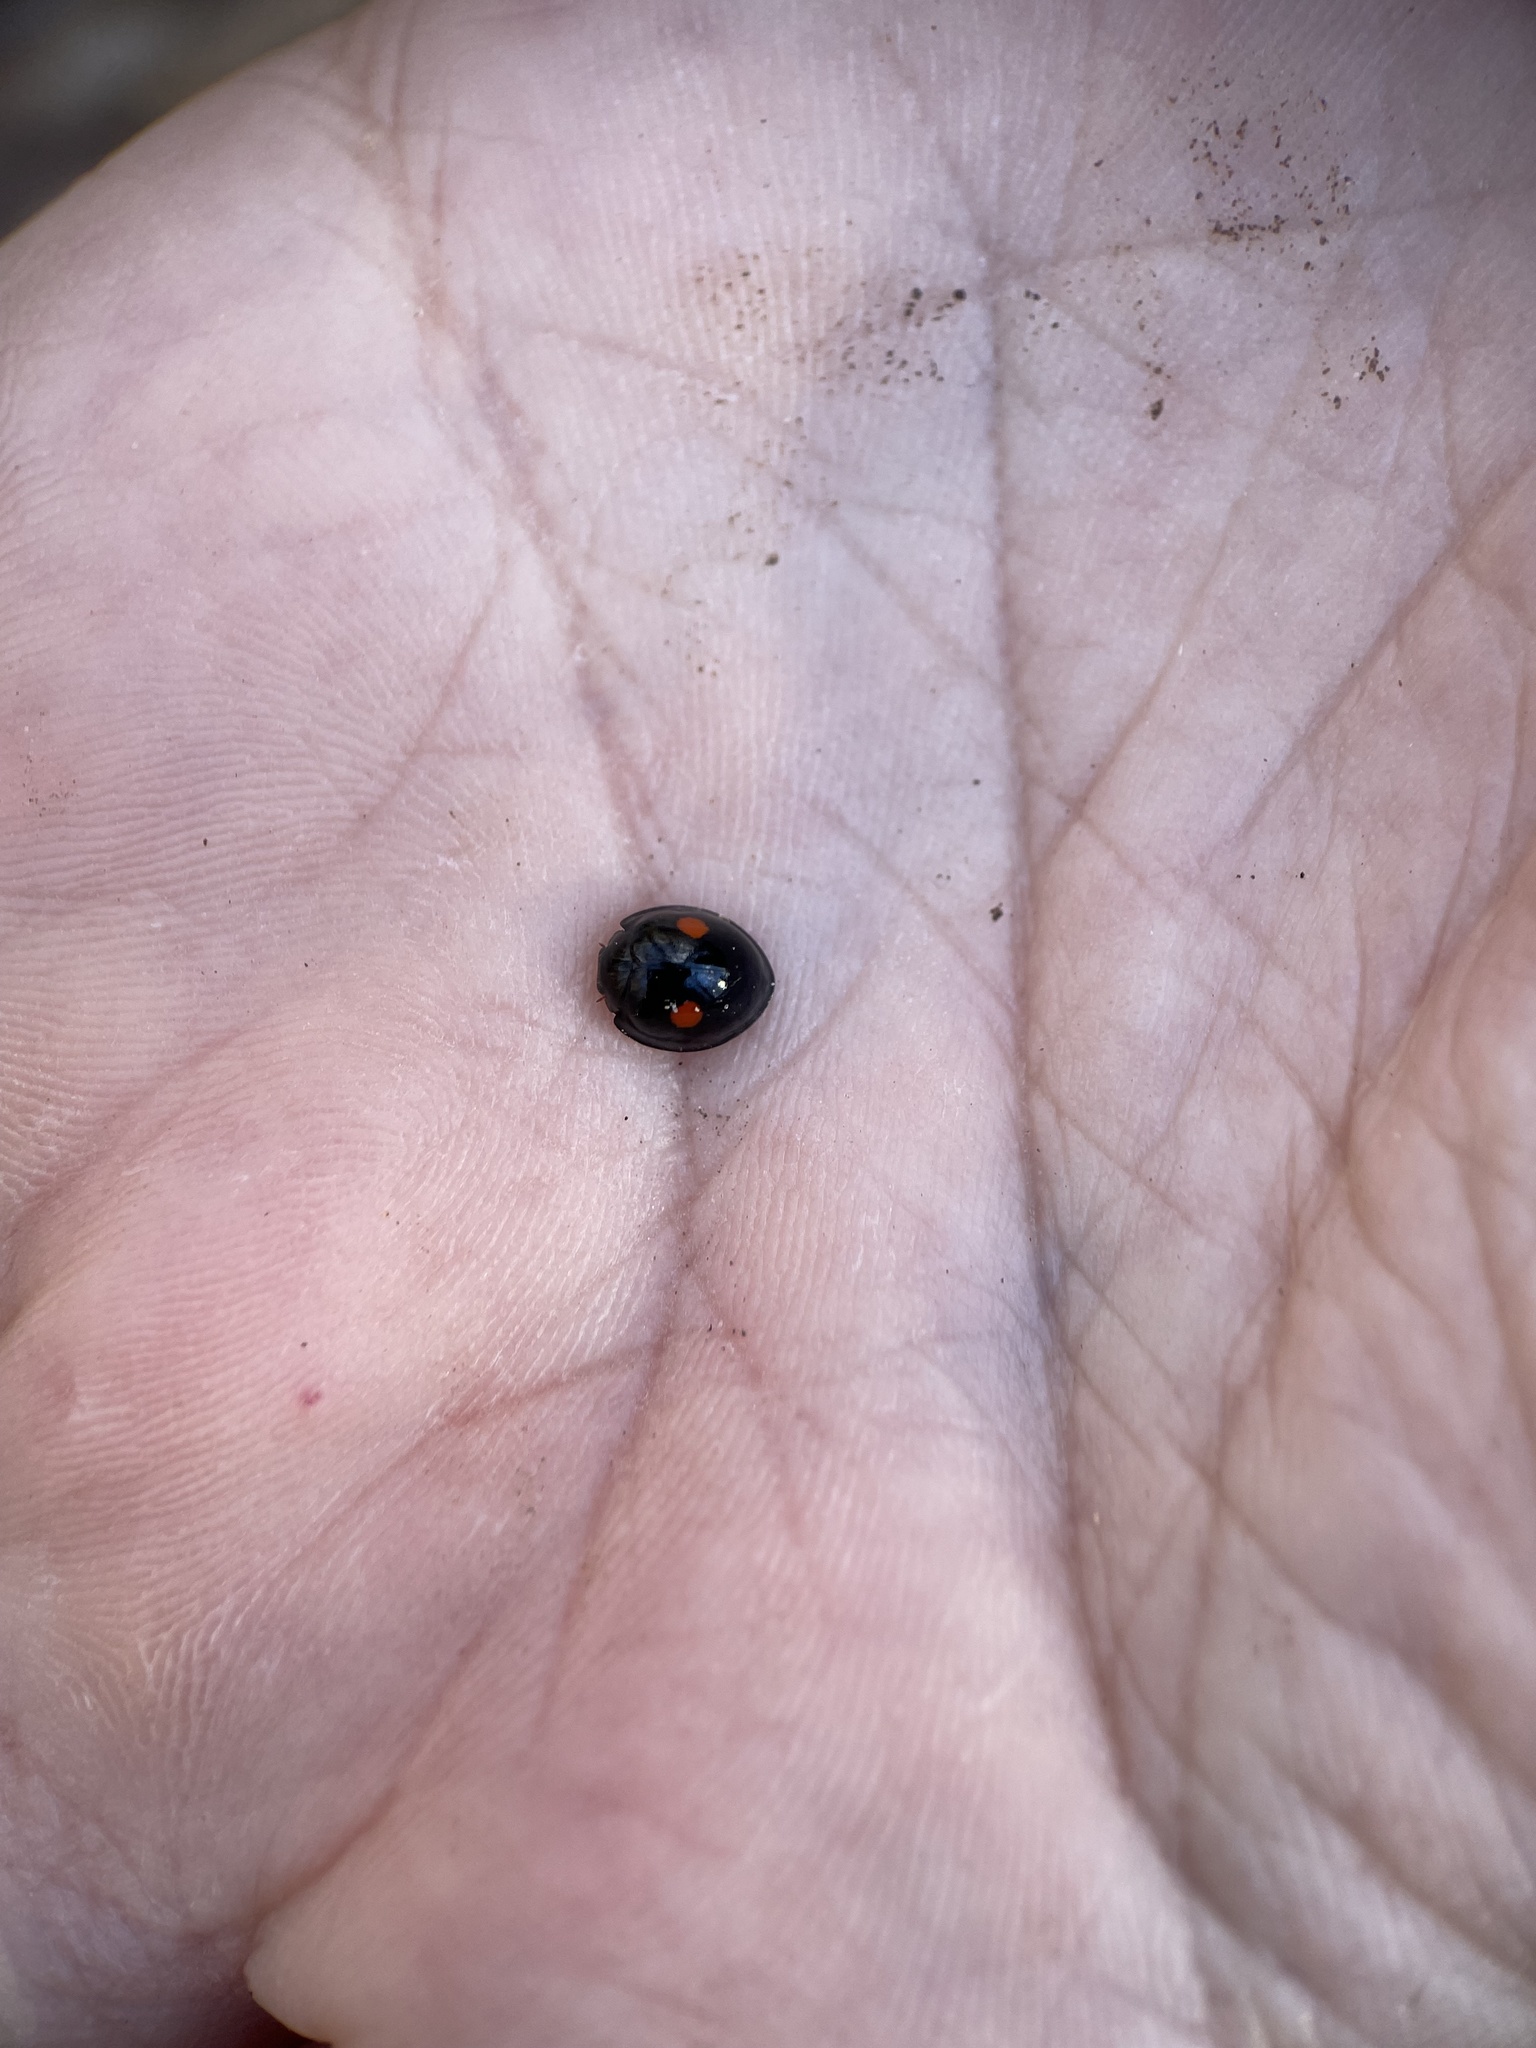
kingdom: Animalia
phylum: Arthropoda
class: Insecta
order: Coleoptera
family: Coccinellidae
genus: Chilocorus
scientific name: Chilocorus stigma
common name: Twicestabbed lady beetle
